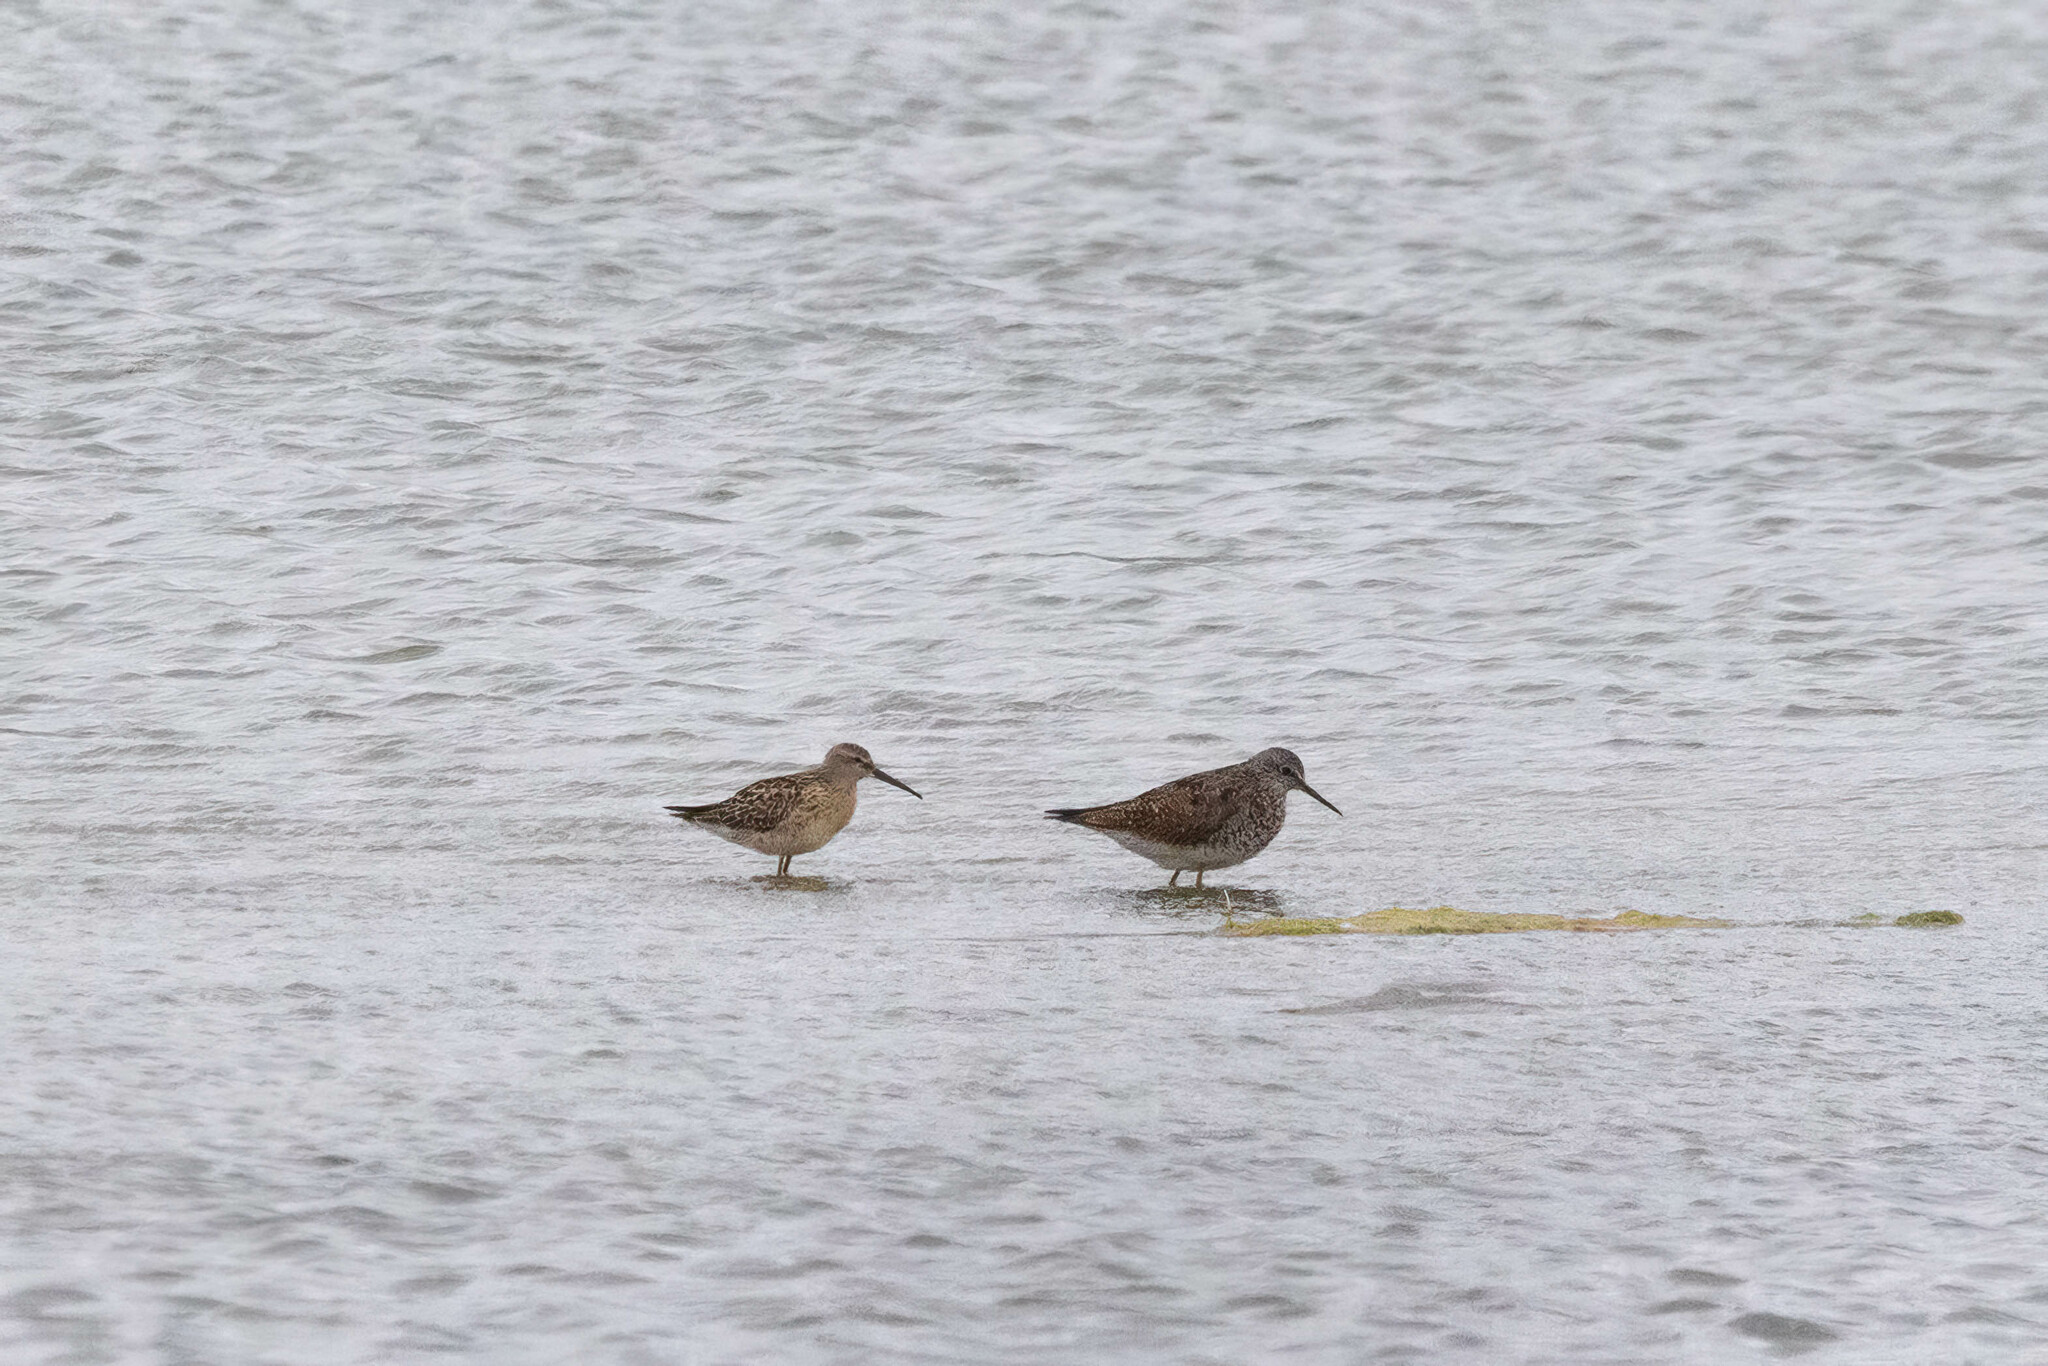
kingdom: Animalia
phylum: Chordata
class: Aves
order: Charadriiformes
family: Scolopacidae
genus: Calidris
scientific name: Calidris himantopus
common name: Stilt sandpiper
